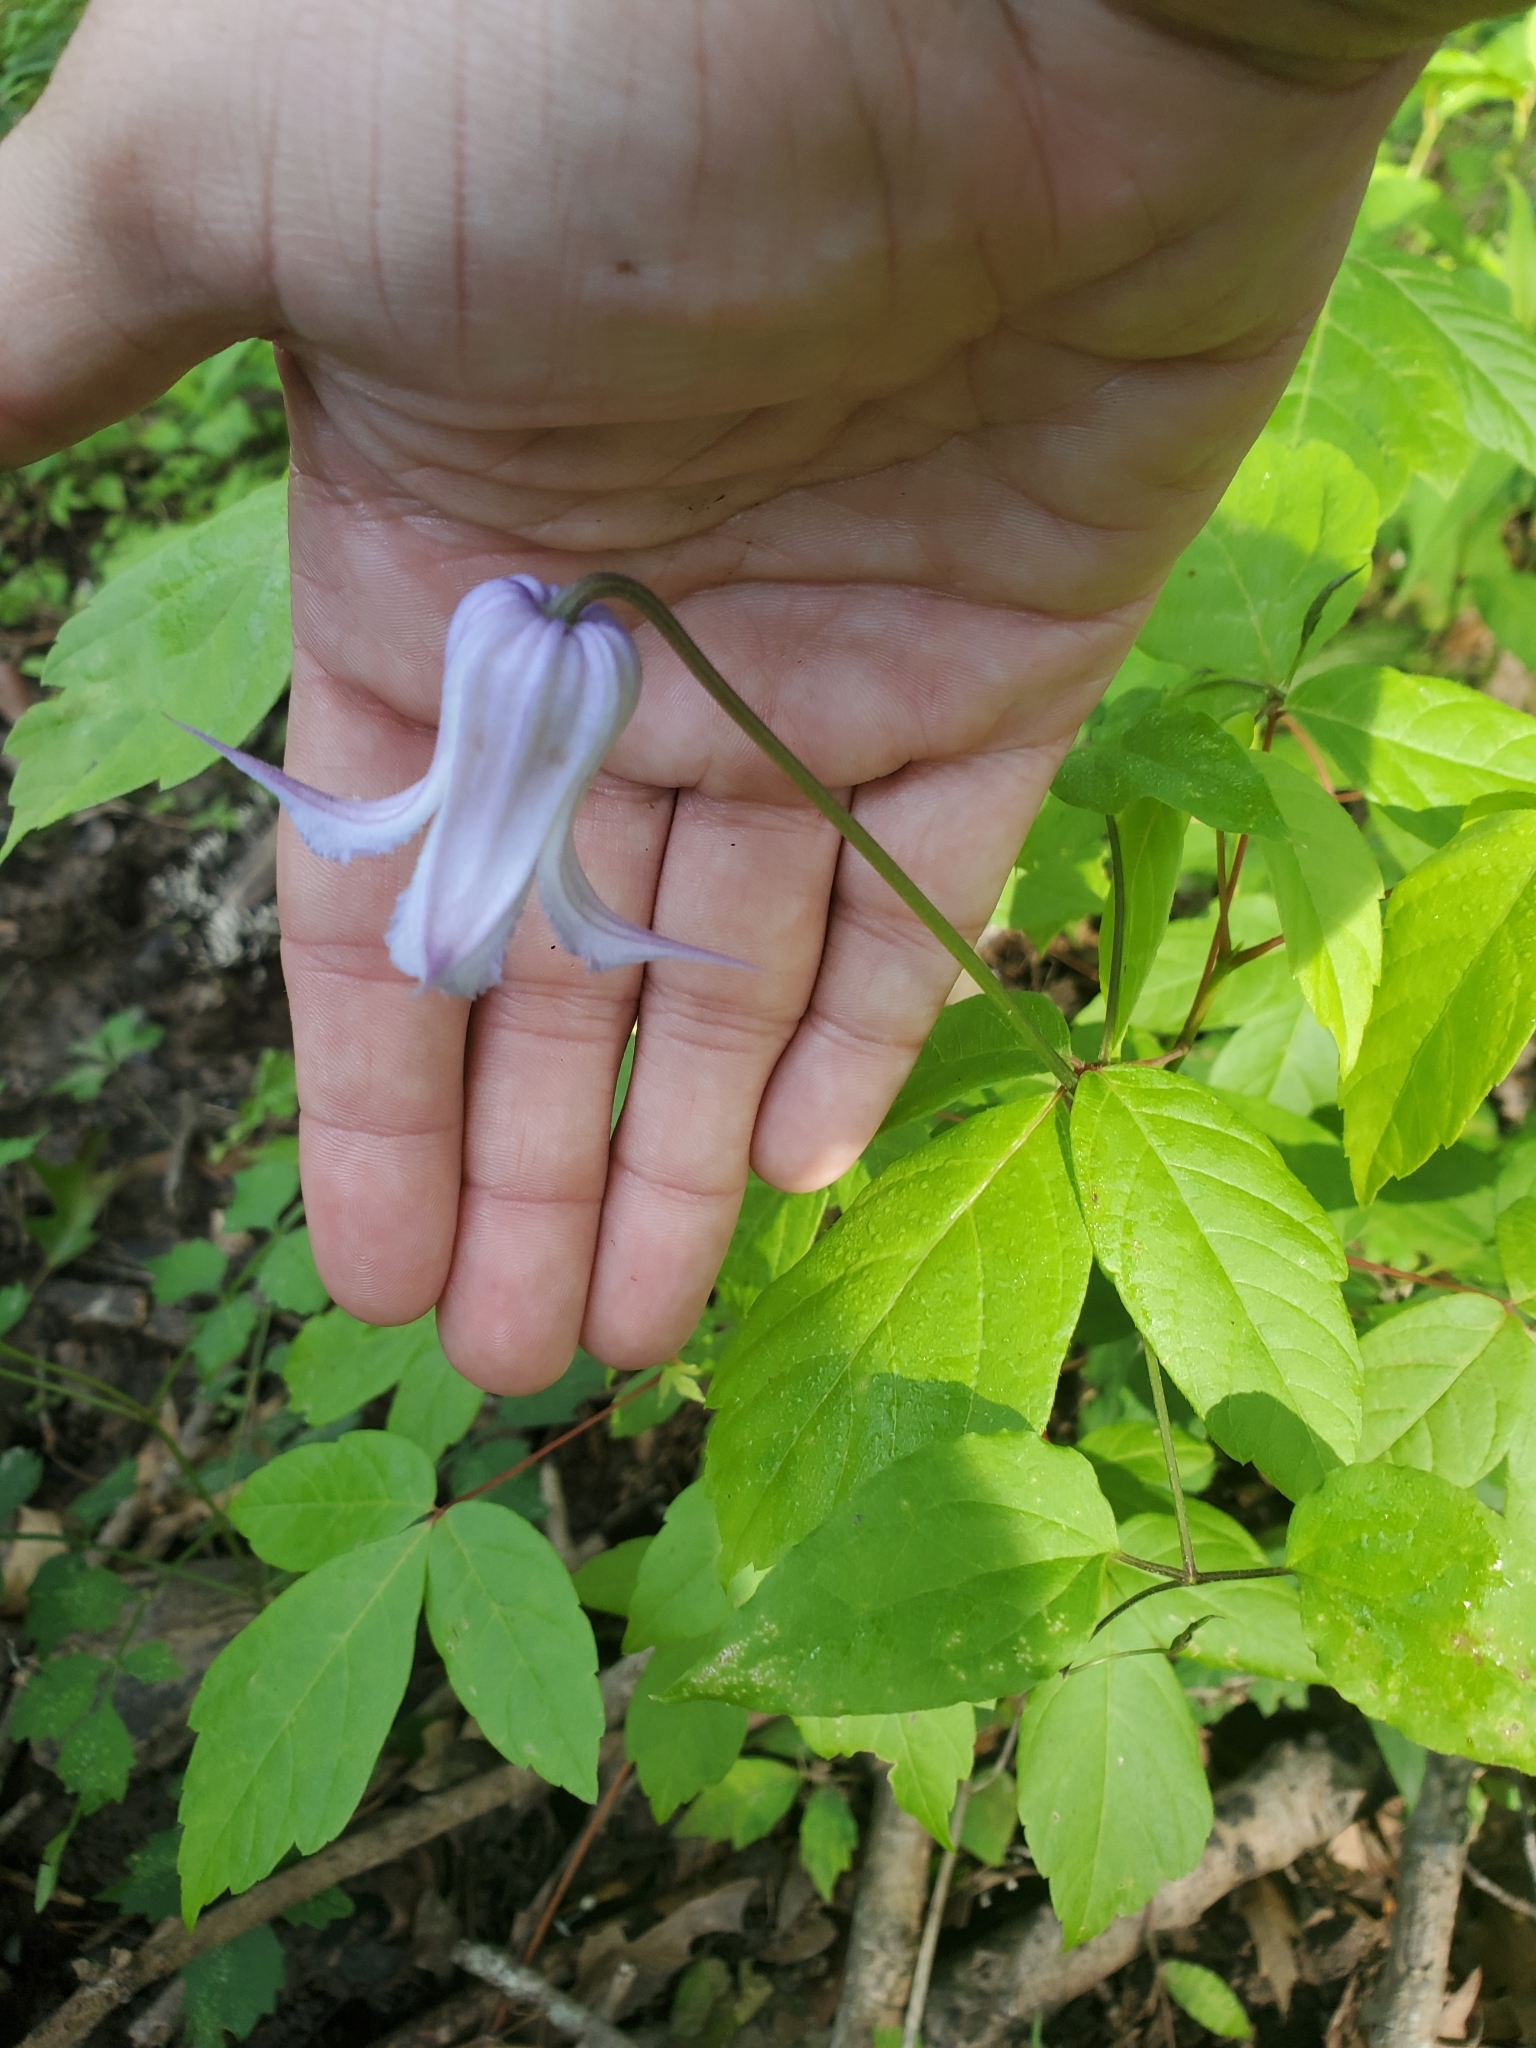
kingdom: Plantae
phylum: Tracheophyta
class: Magnoliopsida
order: Ranunculales
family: Ranunculaceae
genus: Clematis
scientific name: Clematis crispa
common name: Curly clematis
